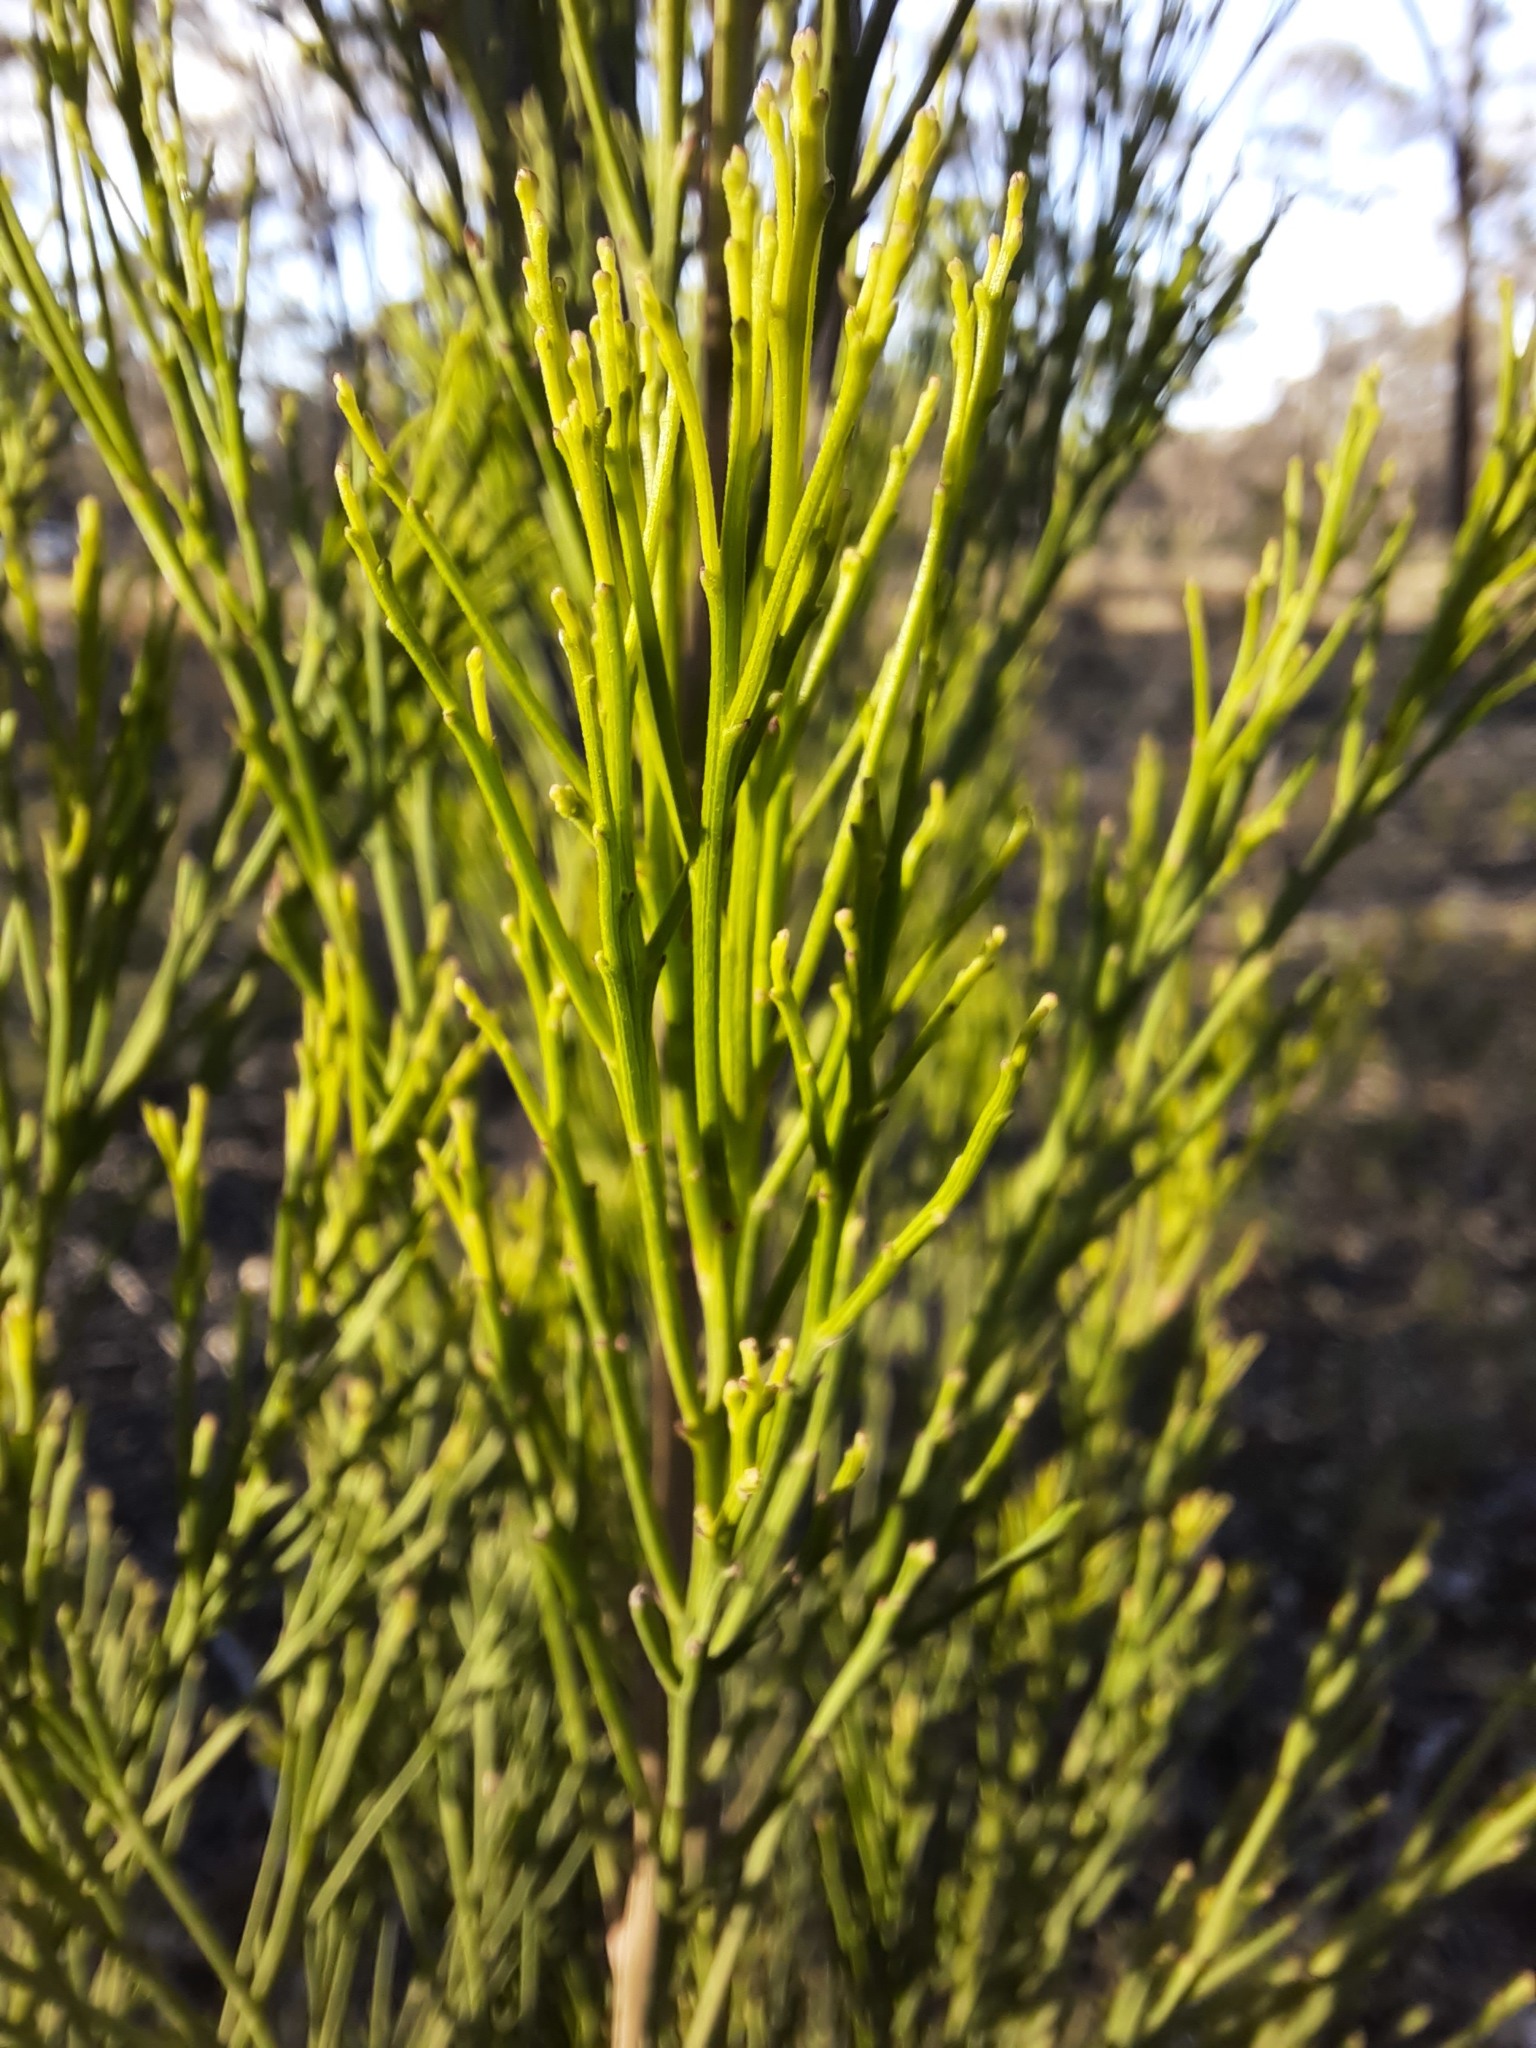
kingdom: Plantae
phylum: Tracheophyta
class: Magnoliopsida
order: Santalales
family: Santalaceae
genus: Exocarpos
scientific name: Exocarpos cupressiformis
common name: Cherry ballart
